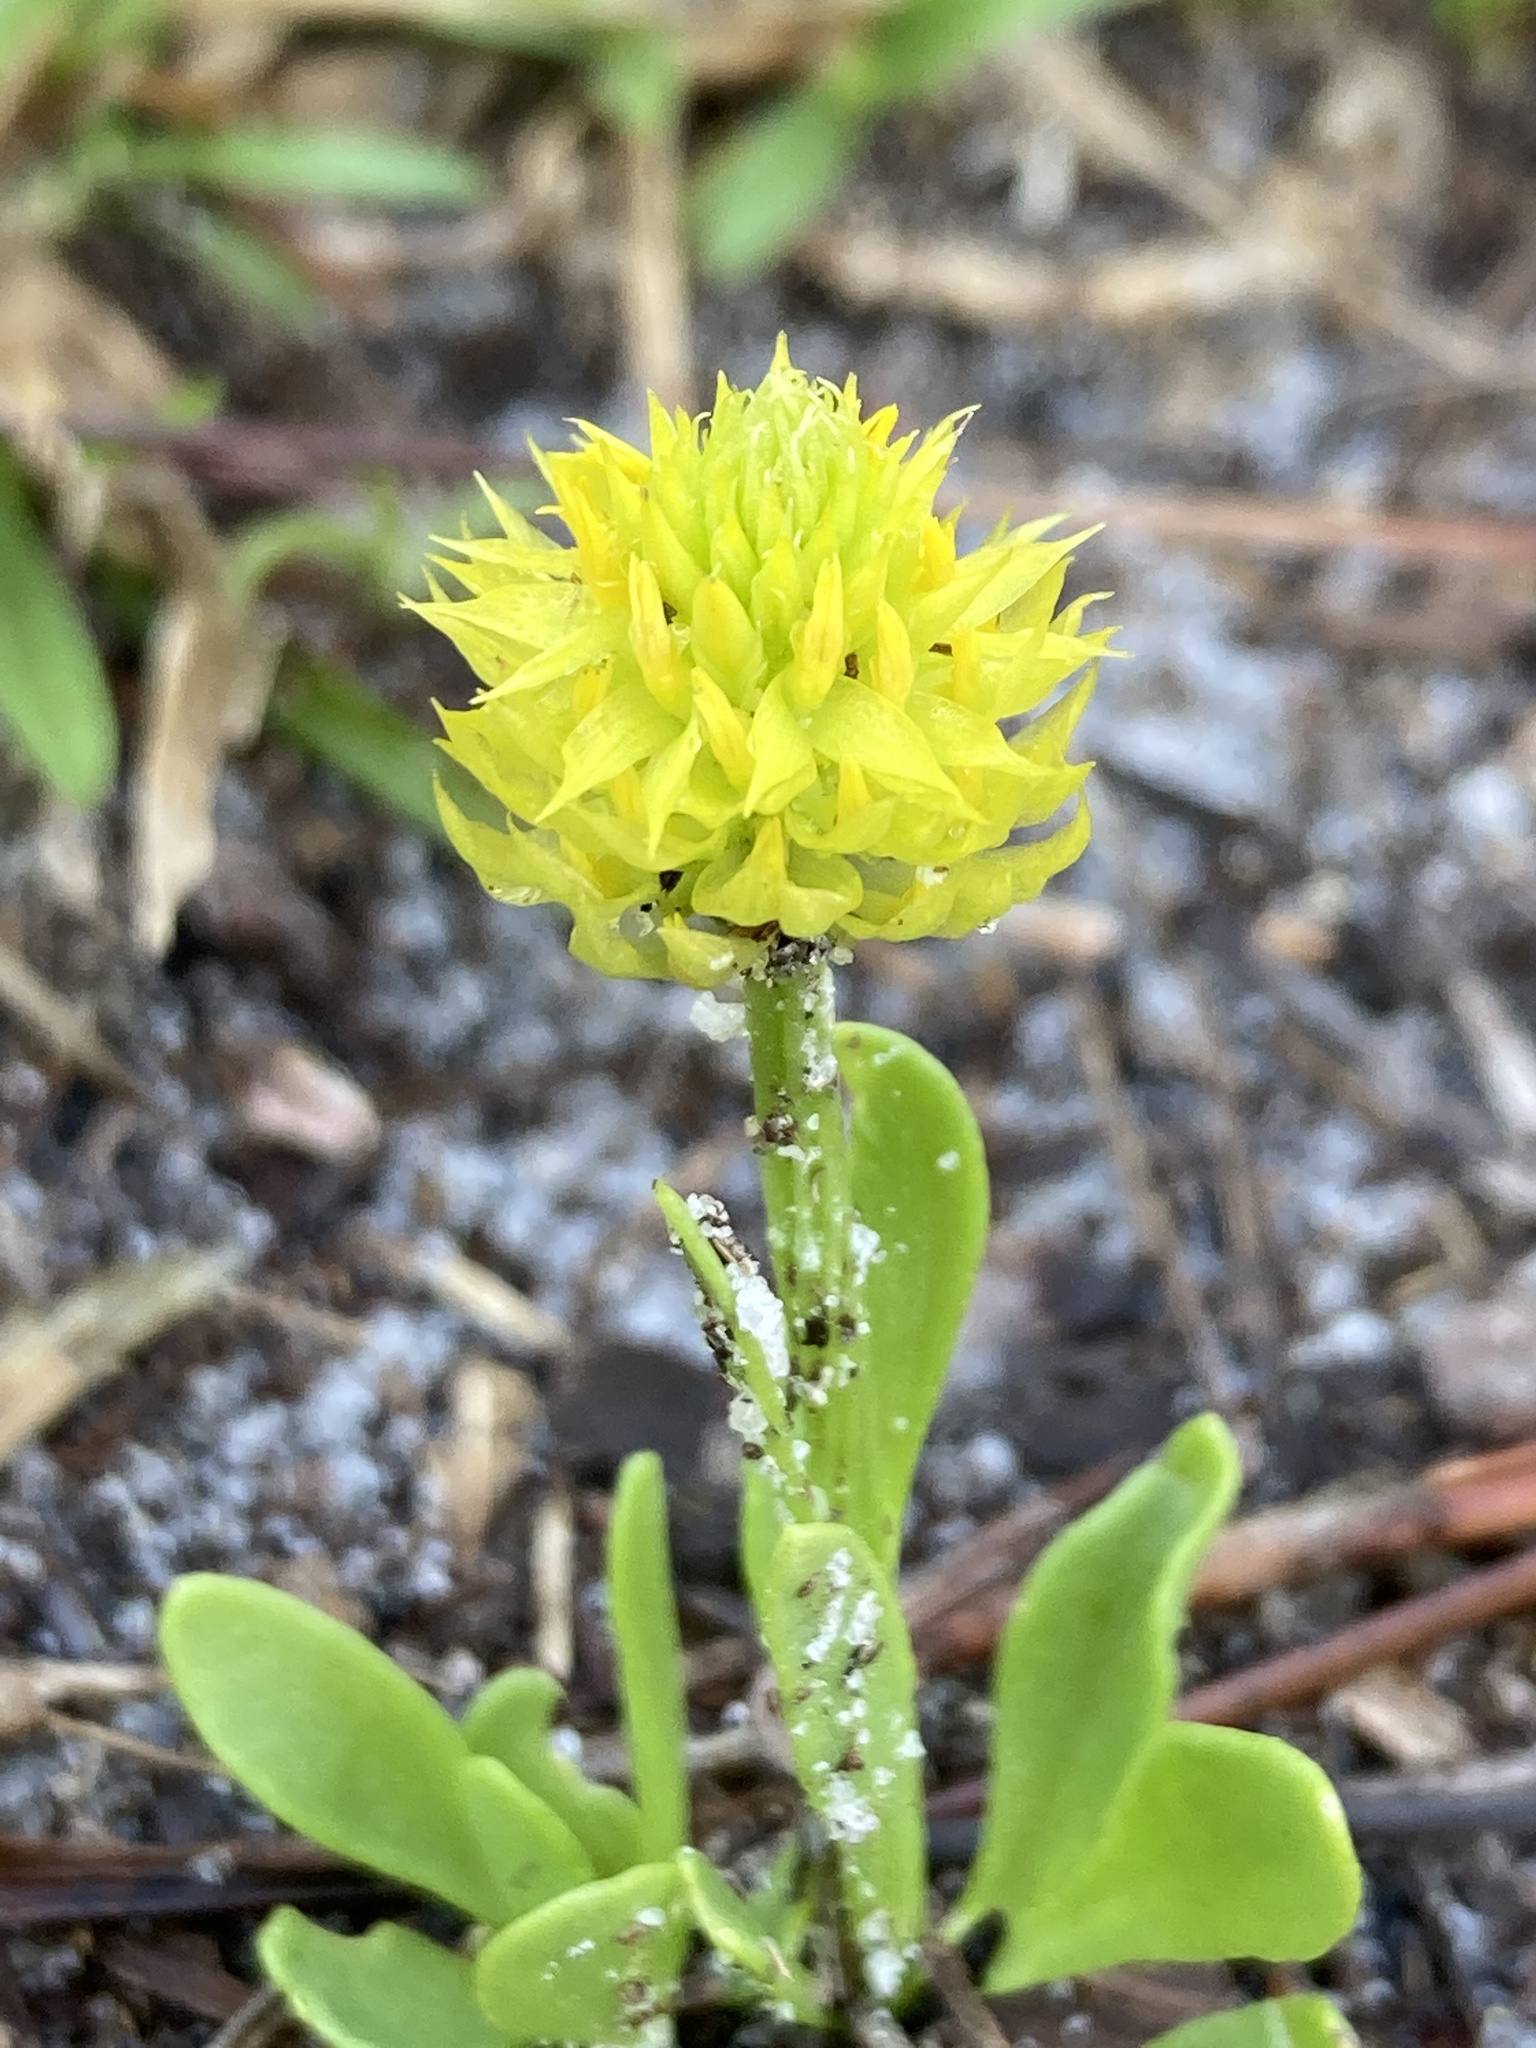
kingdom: Plantae
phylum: Tracheophyta
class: Magnoliopsida
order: Fabales
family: Polygalaceae
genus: Polygala
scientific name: Polygala nana
